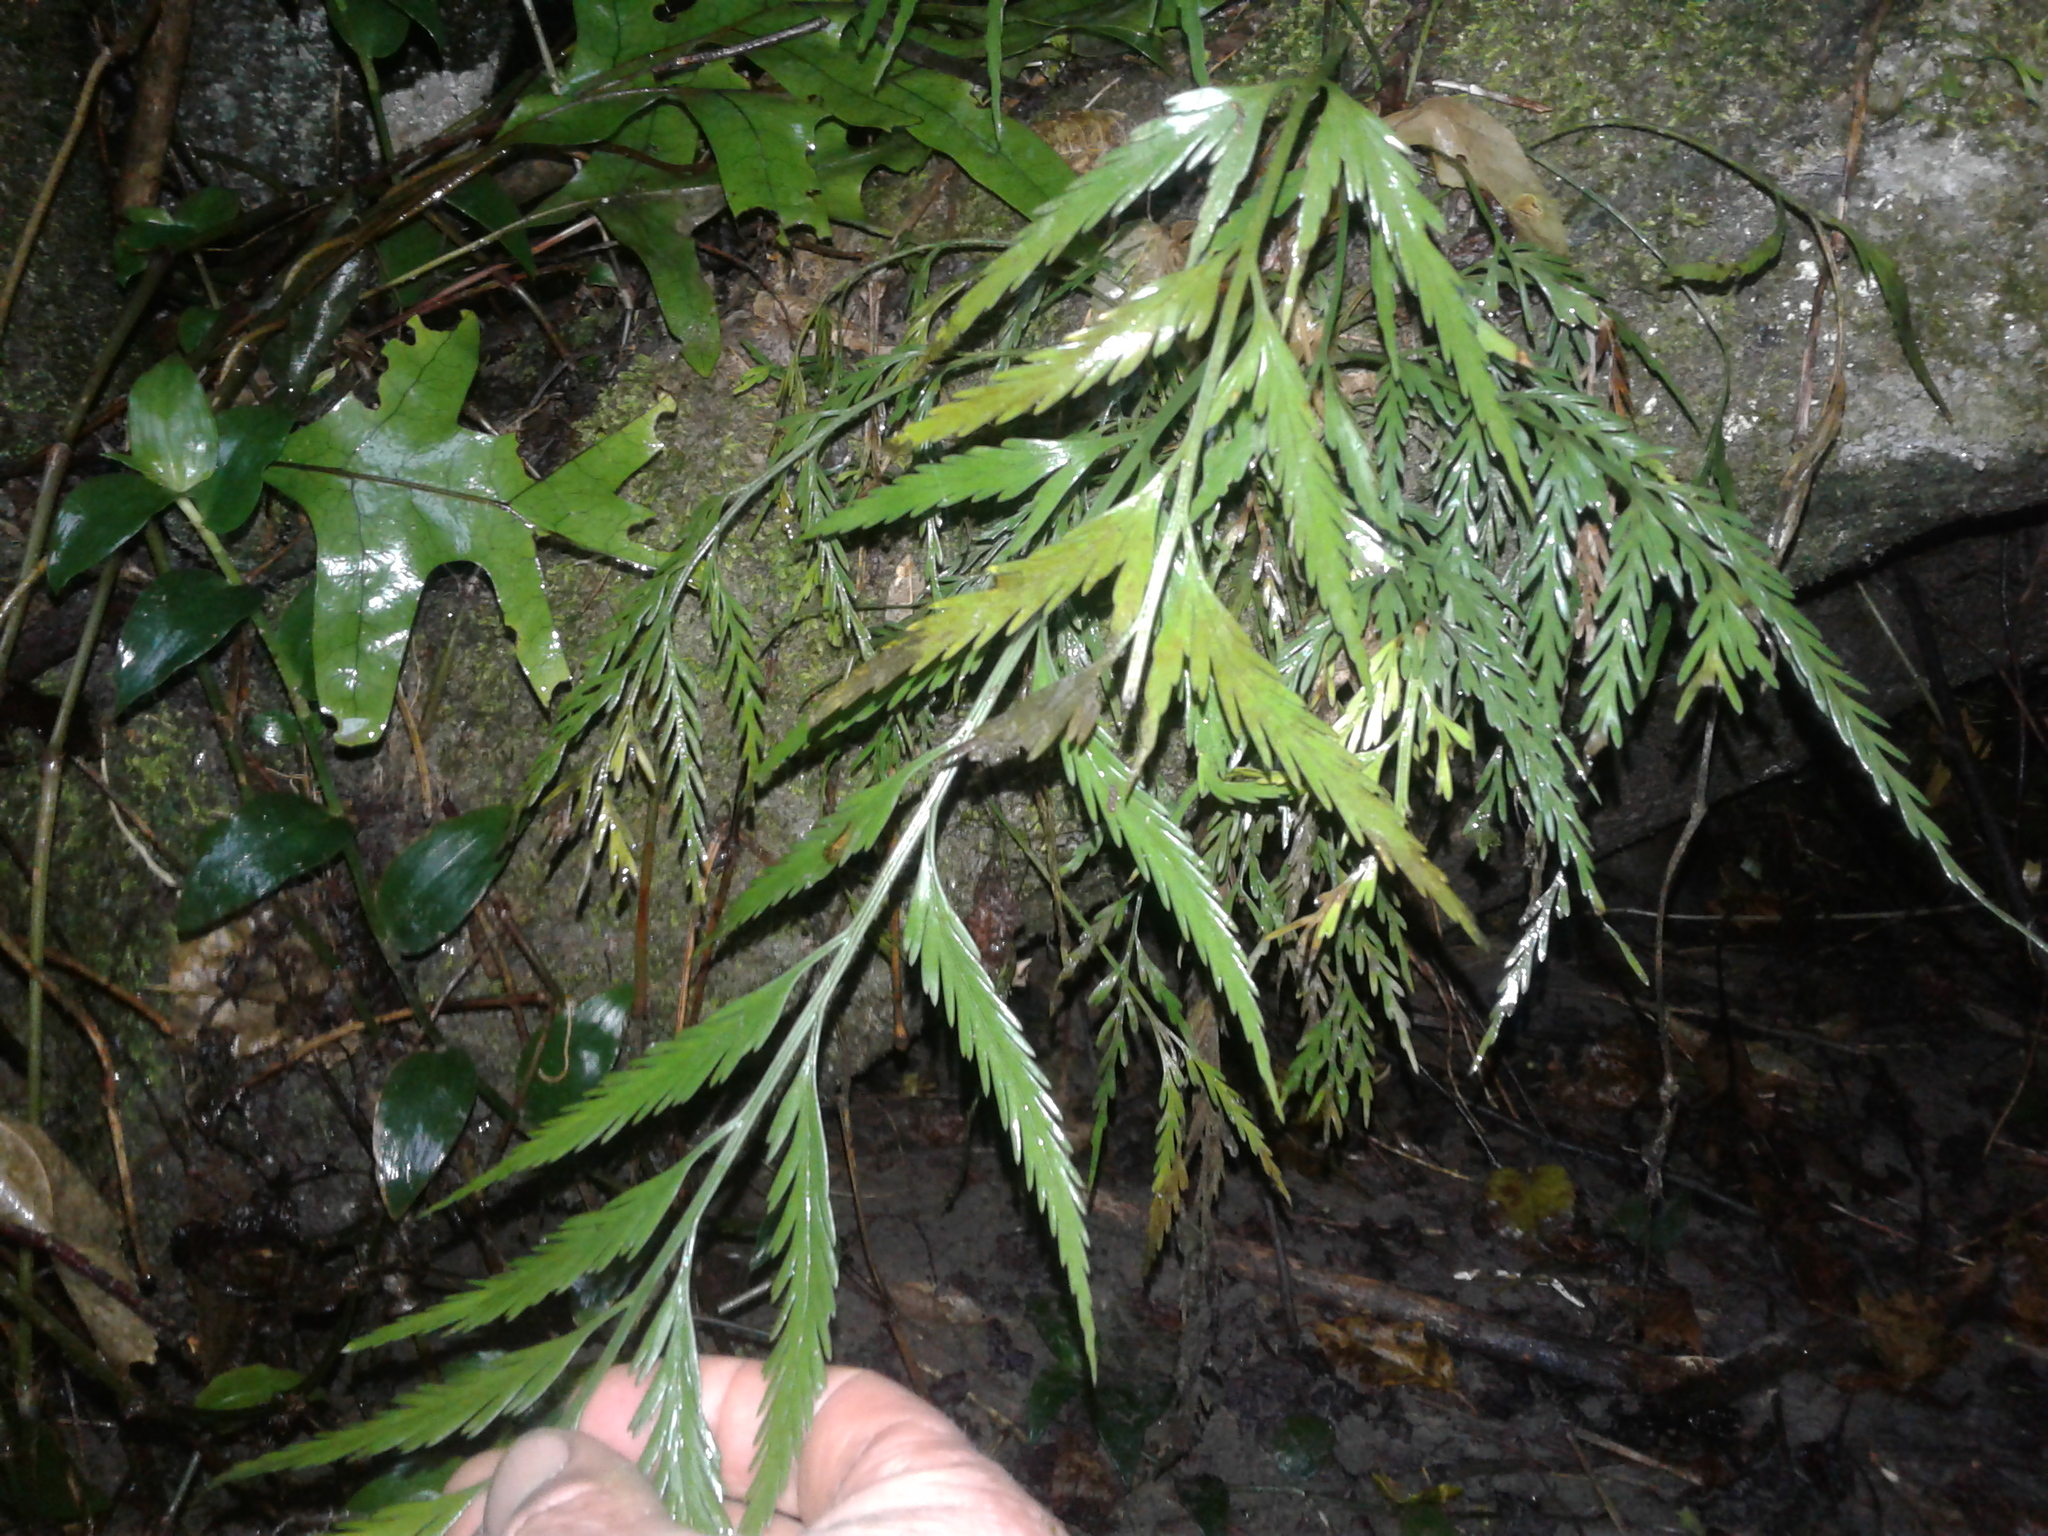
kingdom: Plantae
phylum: Tracheophyta
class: Polypodiopsida
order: Polypodiales
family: Aspleniaceae
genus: Asplenium
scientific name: Asplenium flaccidum
